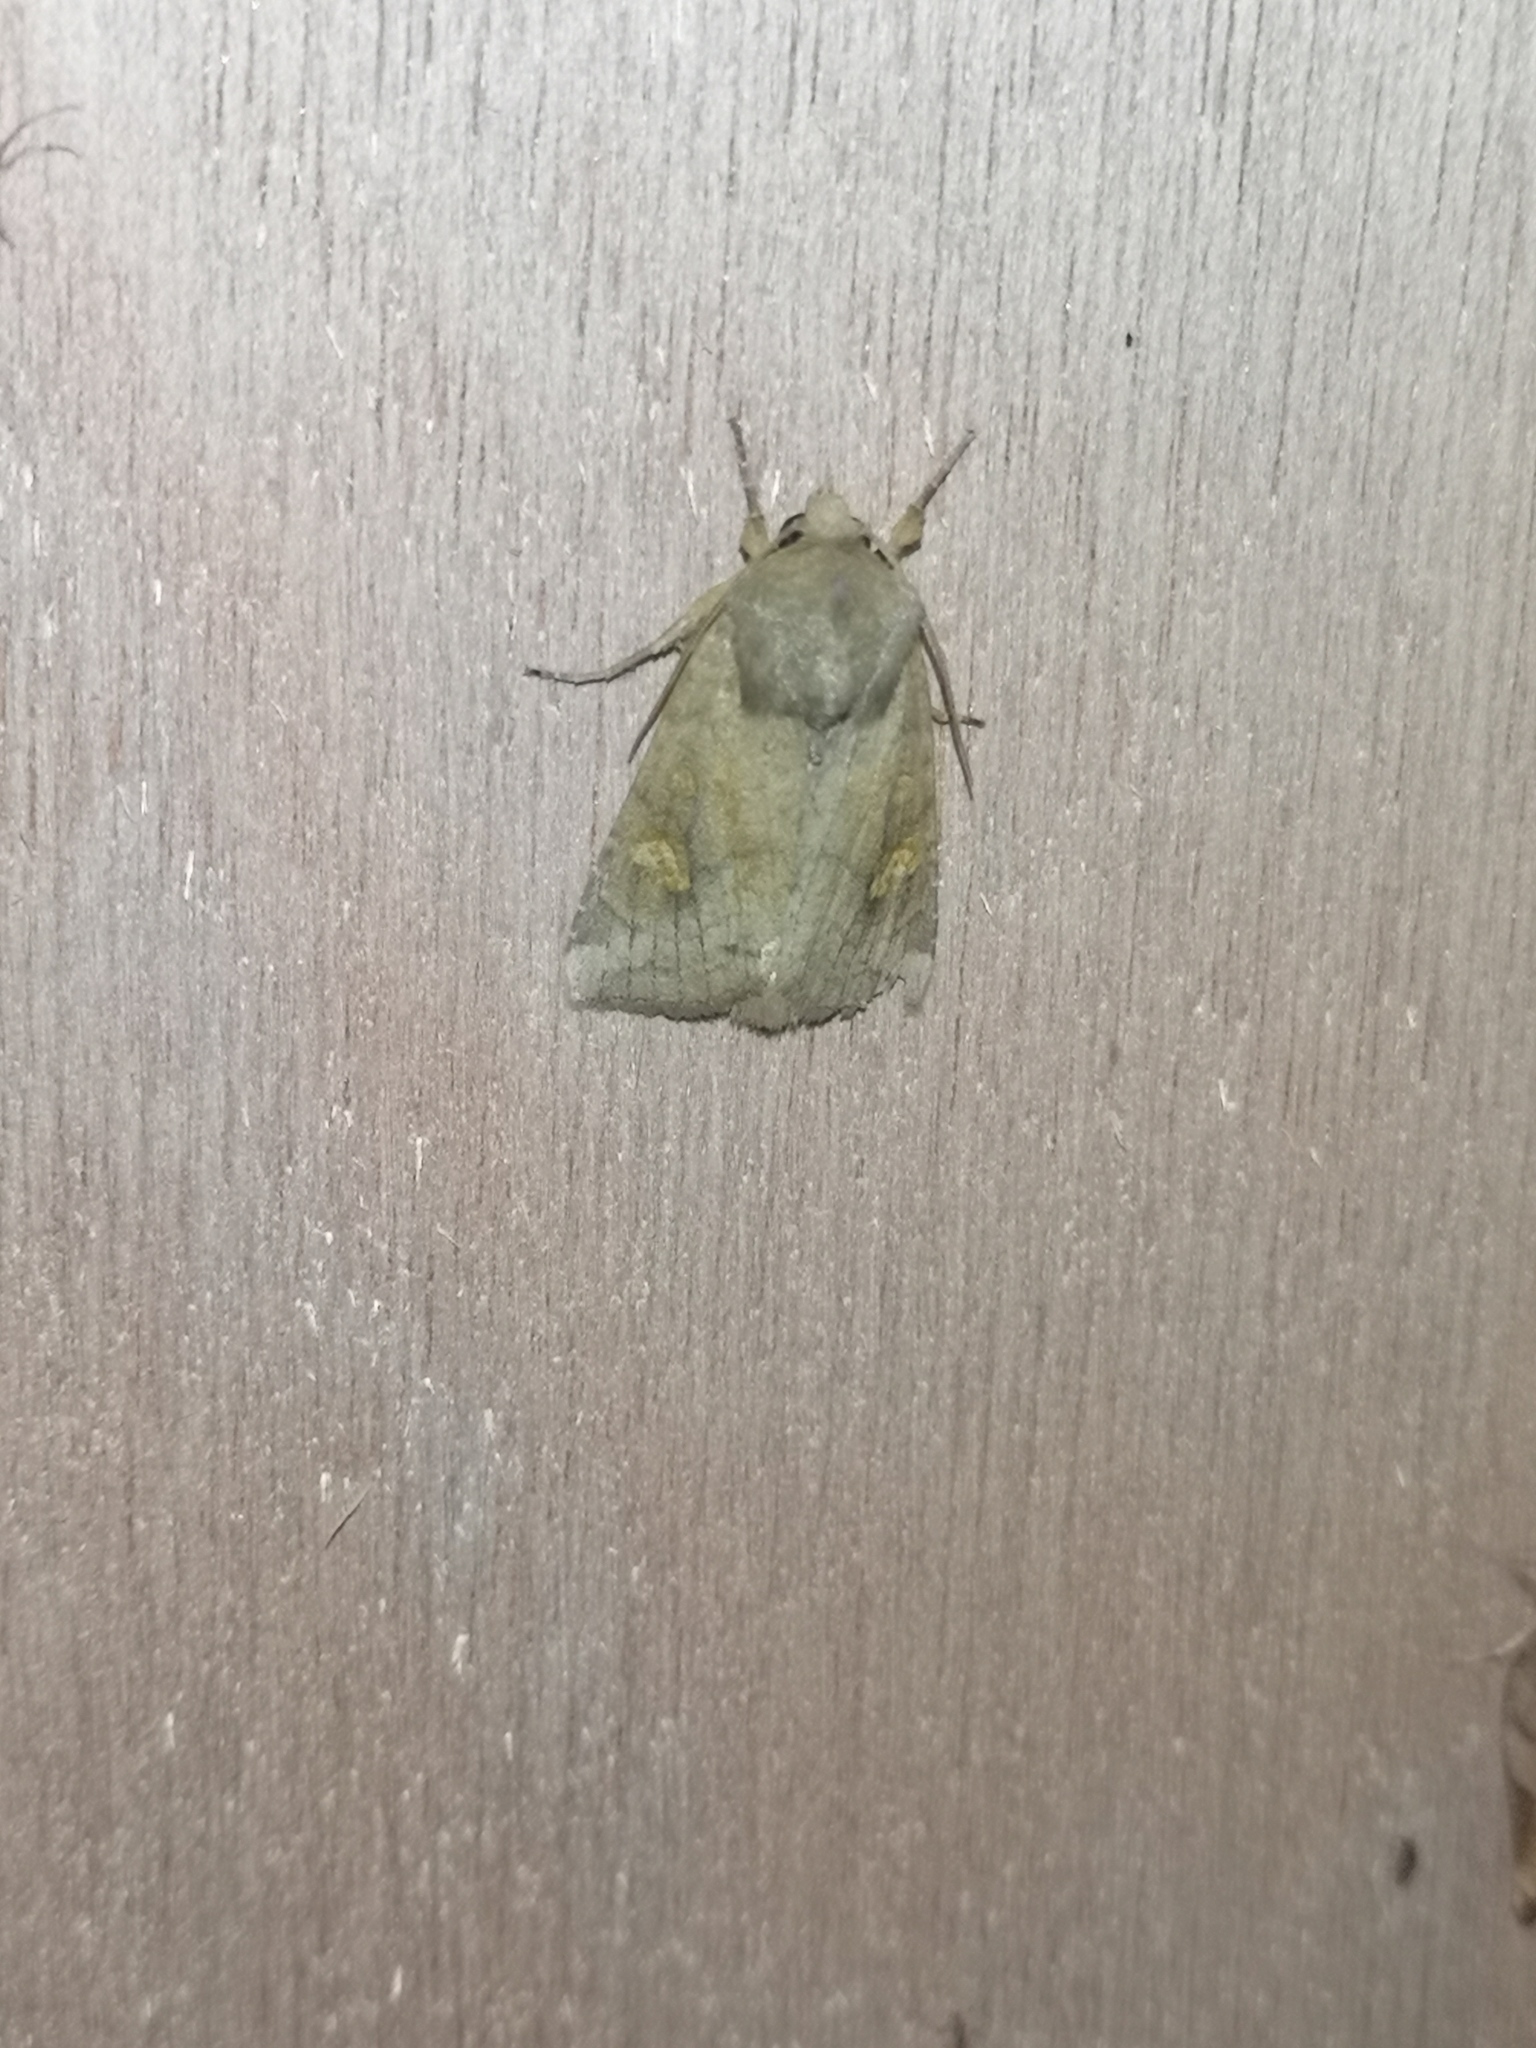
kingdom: Animalia
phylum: Arthropoda
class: Insecta
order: Lepidoptera
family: Noctuidae
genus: Amphipoea
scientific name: Amphipoea
